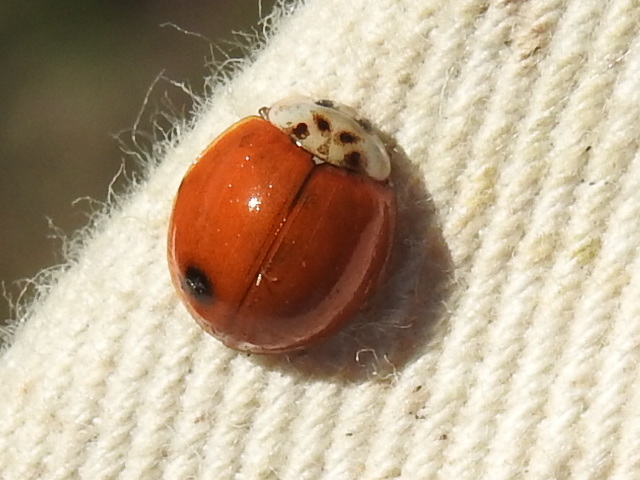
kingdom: Animalia
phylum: Arthropoda
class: Insecta
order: Coleoptera
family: Coccinellidae
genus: Harmonia
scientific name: Harmonia axyridis
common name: Harlequin ladybird
